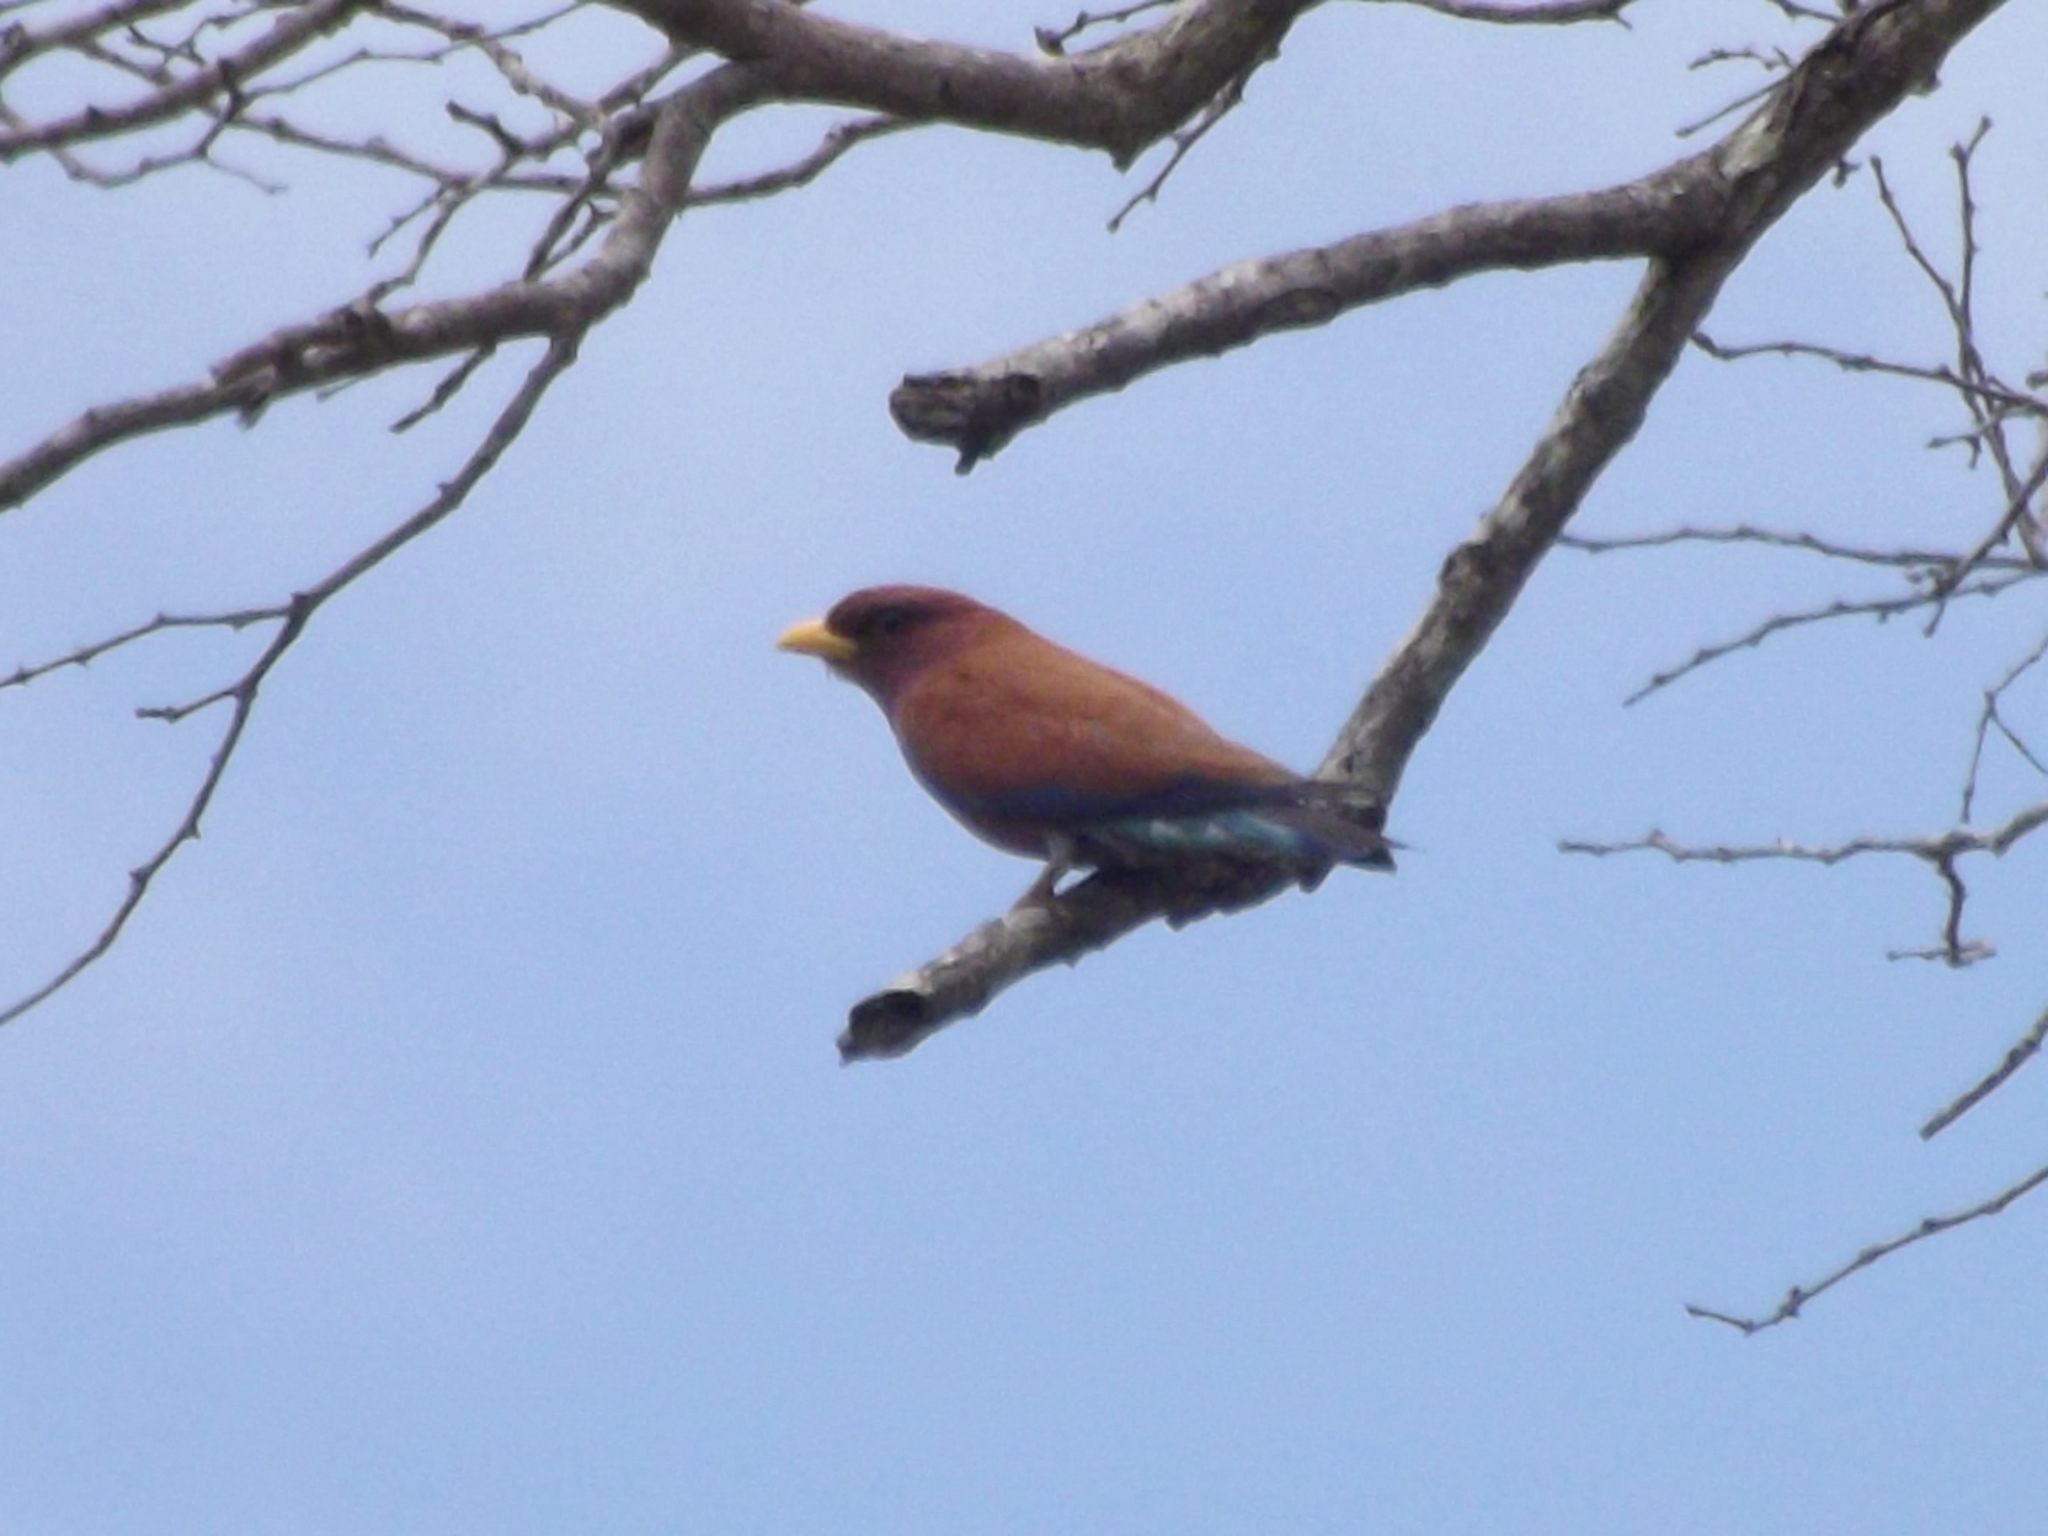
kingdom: Animalia
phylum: Chordata
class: Aves
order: Coraciiformes
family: Coraciidae
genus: Eurystomus
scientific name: Eurystomus glaucurus
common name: Broad-billed roller
